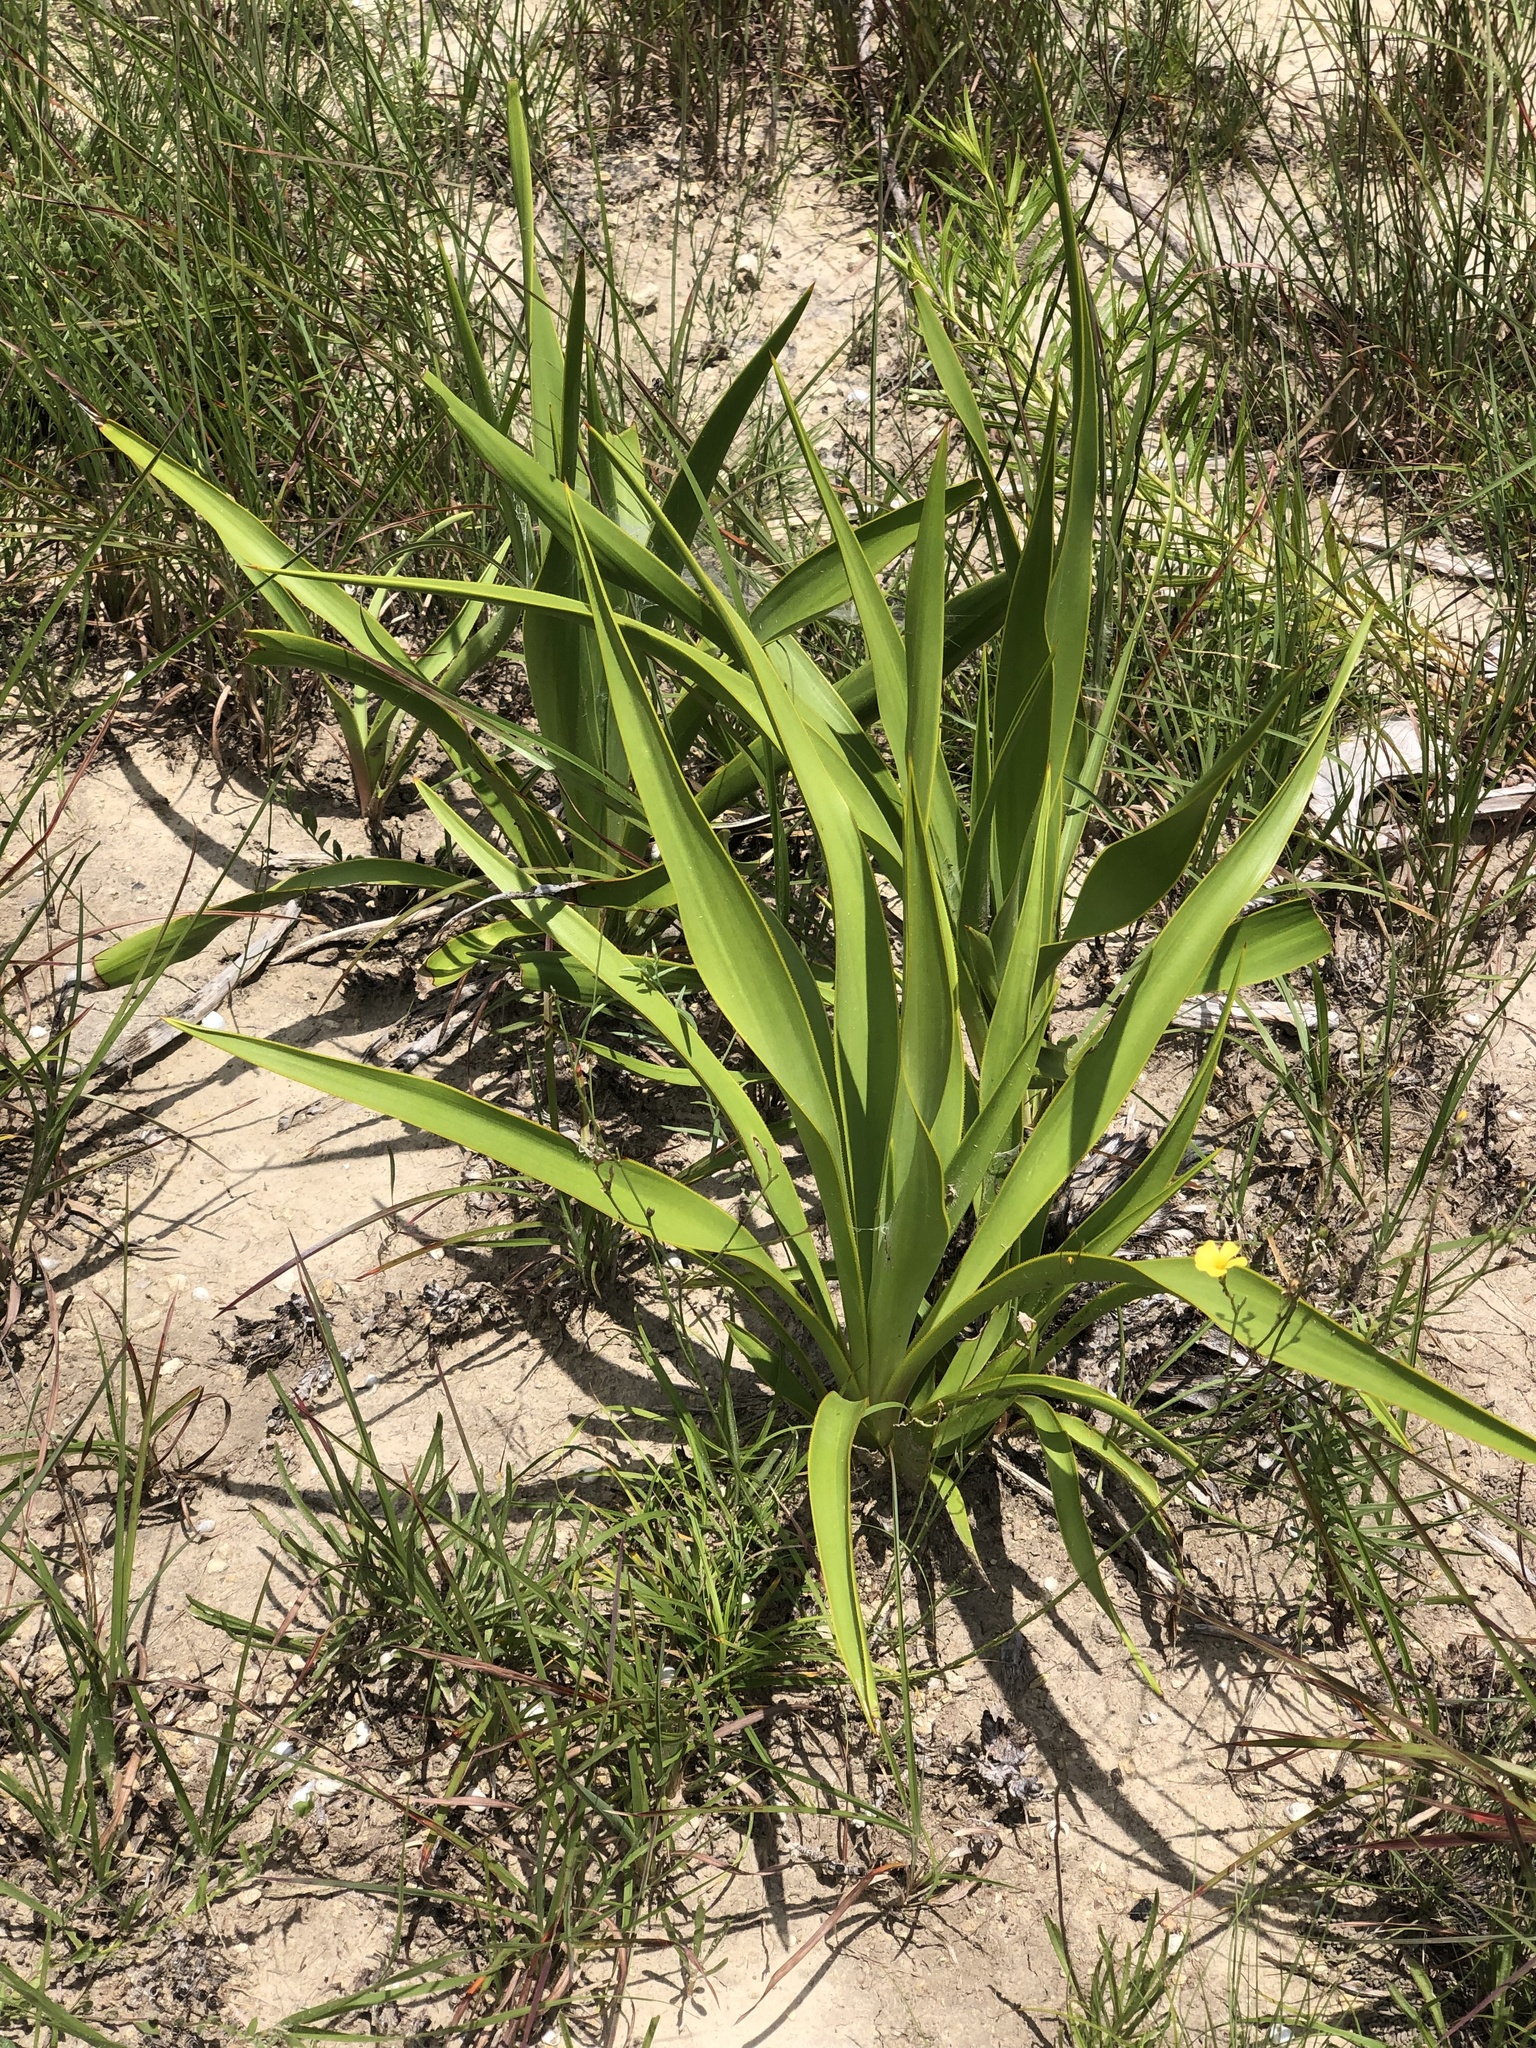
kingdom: Plantae
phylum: Tracheophyta
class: Liliopsida
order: Asparagales
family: Asparagaceae
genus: Yucca
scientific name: Yucca rupicola
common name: Twisted-leaf spanish-dagger
